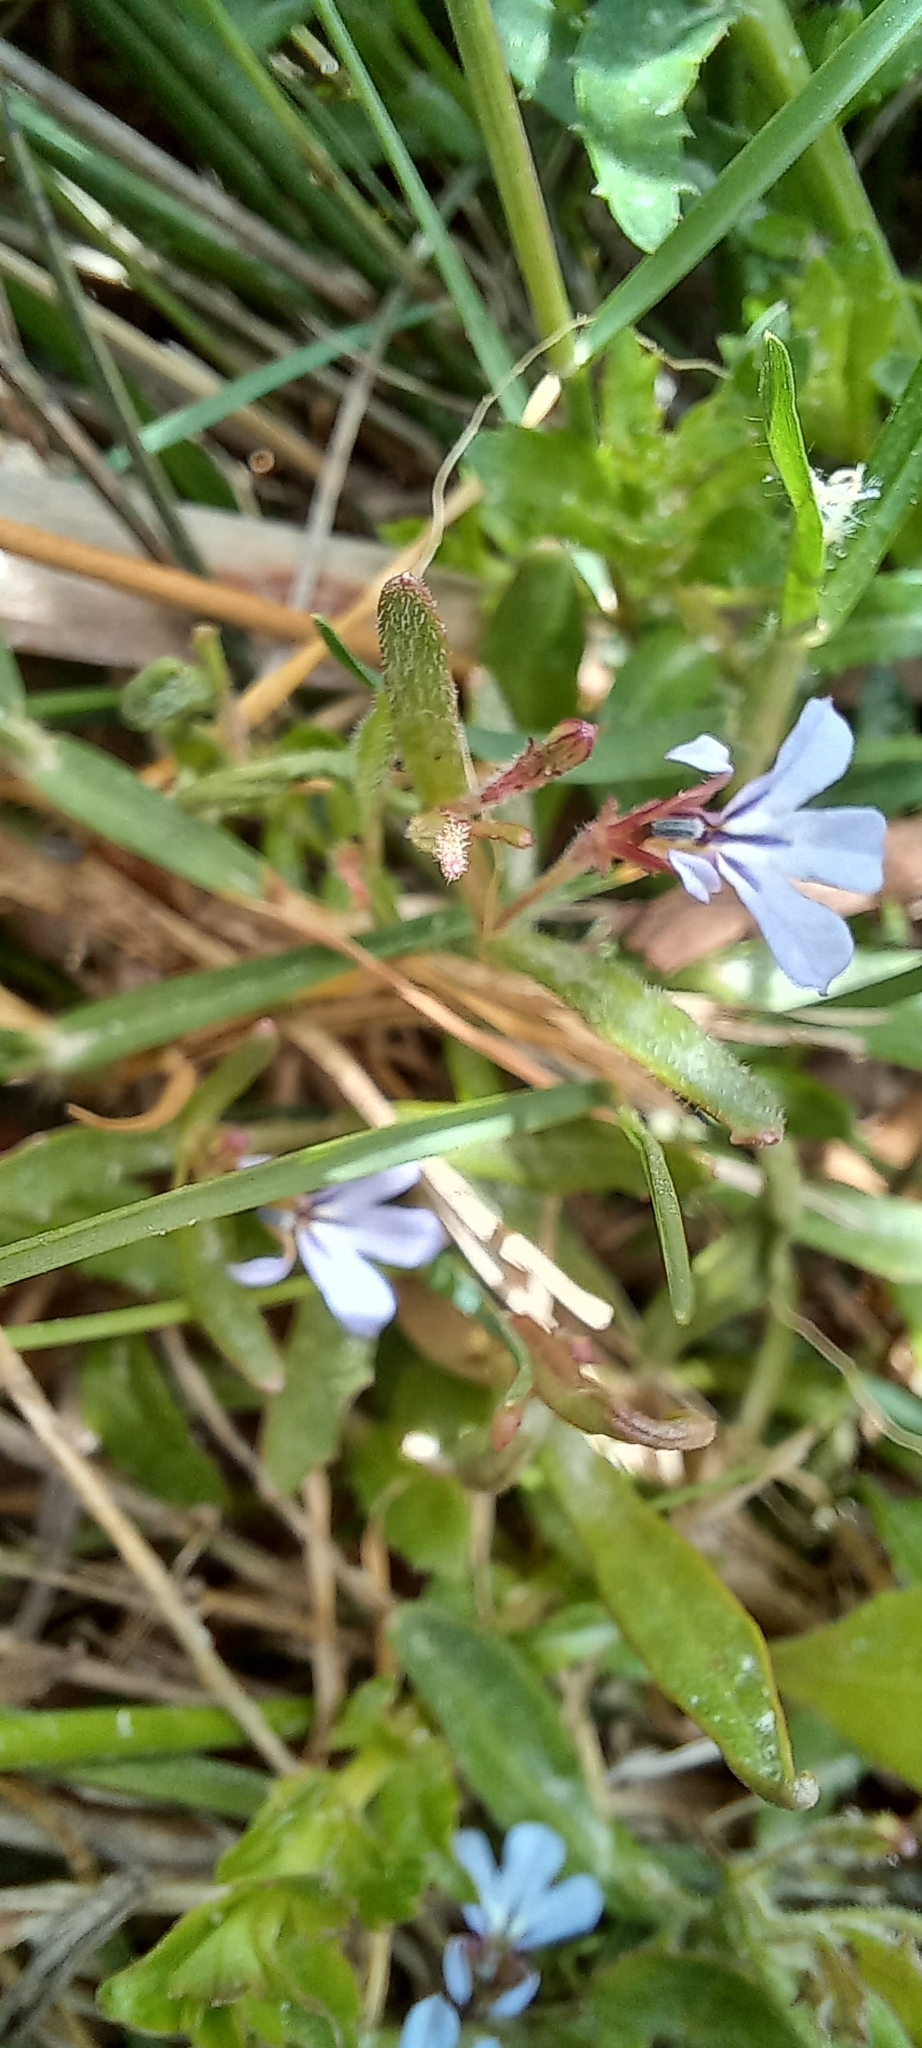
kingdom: Plantae
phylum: Tracheophyta
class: Magnoliopsida
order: Asterales
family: Campanulaceae
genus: Lobelia
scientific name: Lobelia anceps
